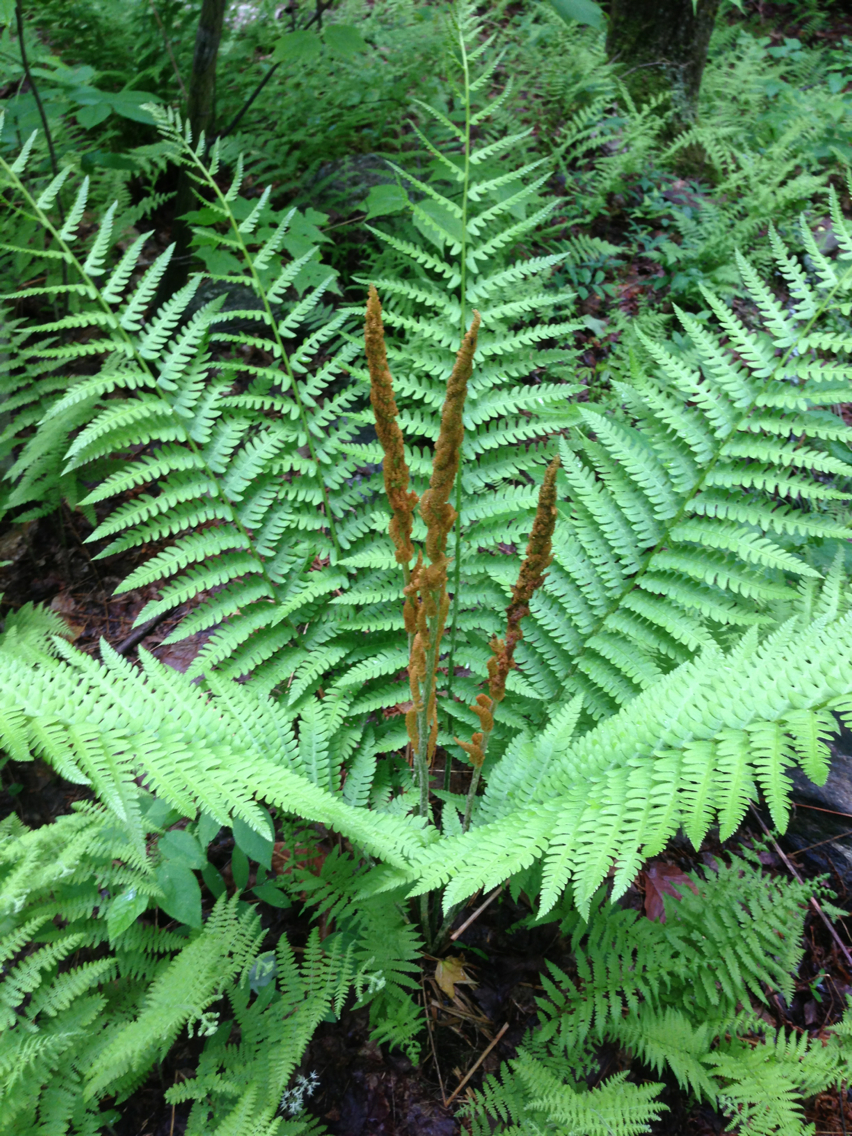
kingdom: Plantae
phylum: Tracheophyta
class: Polypodiopsida
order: Osmundales
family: Osmundaceae
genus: Osmundastrum
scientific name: Osmundastrum cinnamomeum
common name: Cinnamon fern
